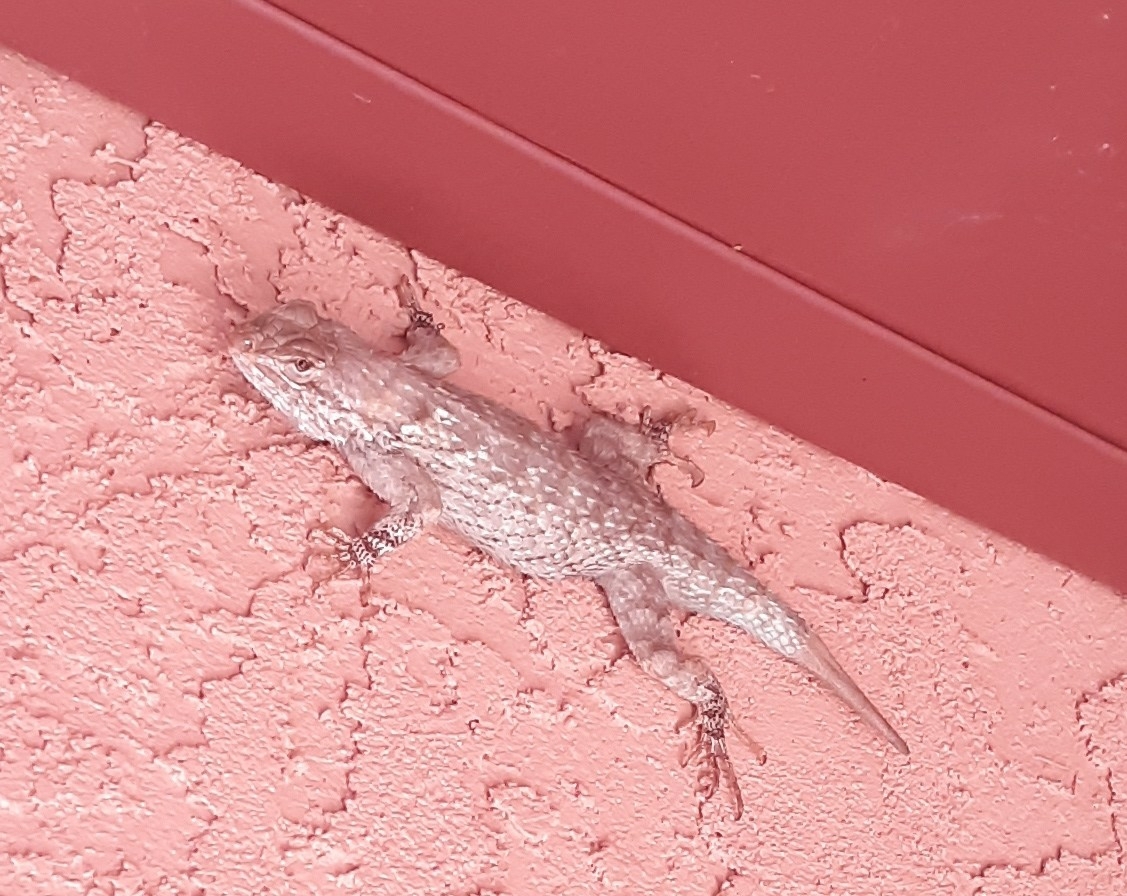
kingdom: Animalia
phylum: Chordata
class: Squamata
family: Phrynosomatidae
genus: Sceloporus
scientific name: Sceloporus clarkii
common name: Clark's spiny lizard
